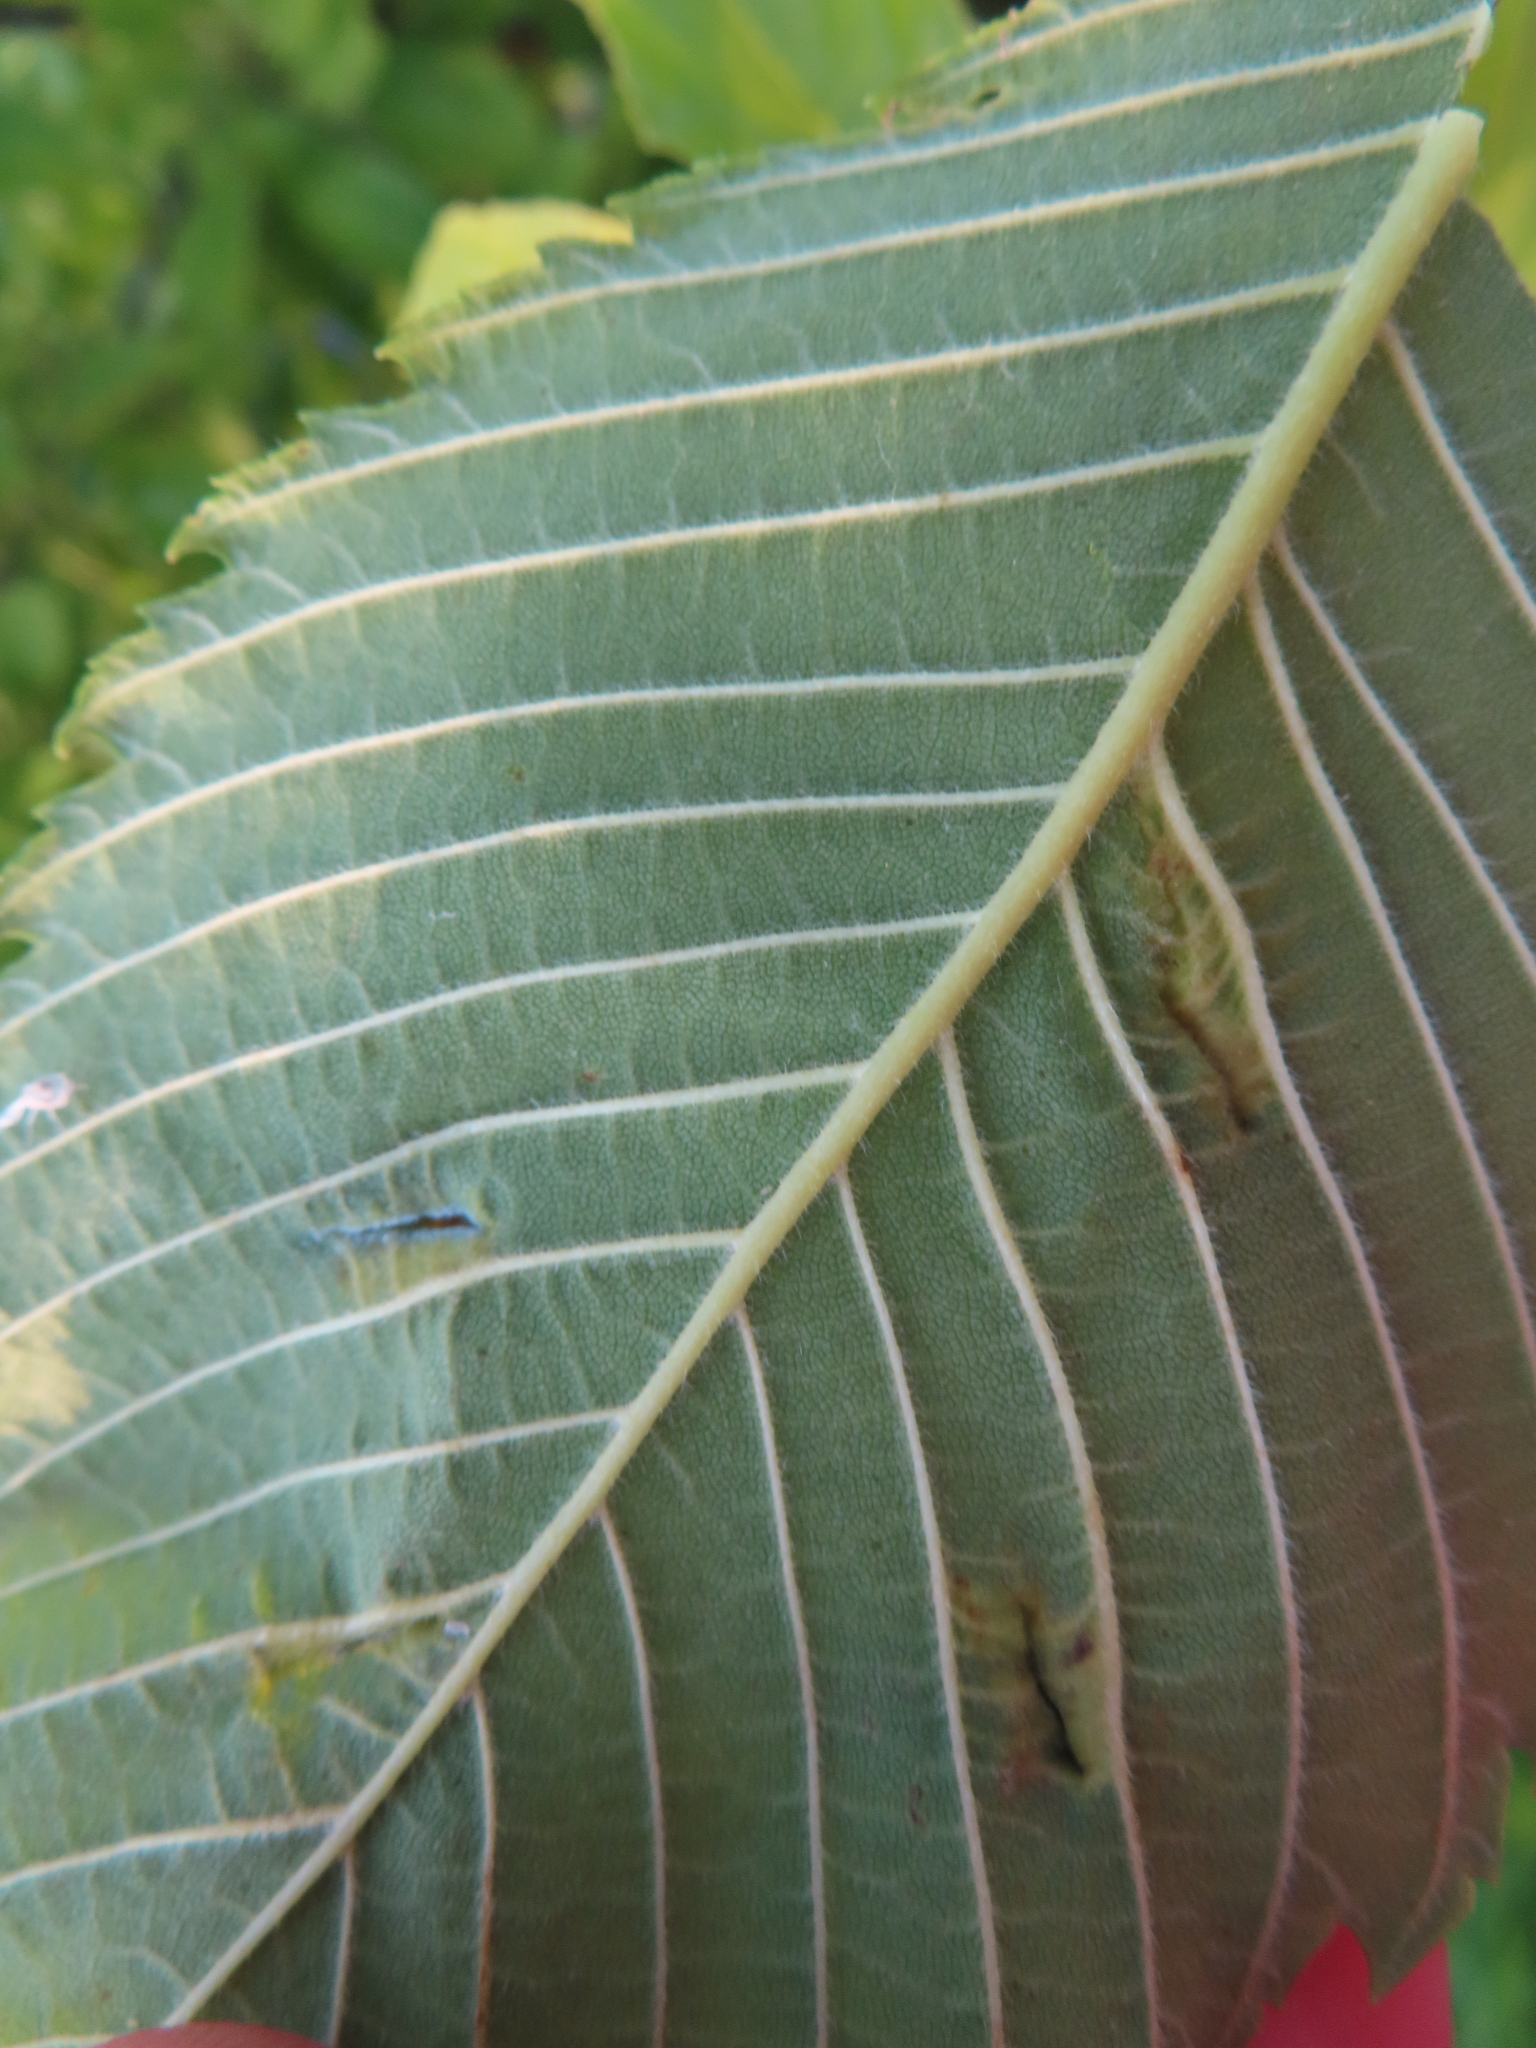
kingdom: Animalia
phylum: Arthropoda
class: Insecta
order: Hemiptera
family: Aphididae
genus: Colopha
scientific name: Colopha ulmicola
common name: Elm cockscombgall aphid
